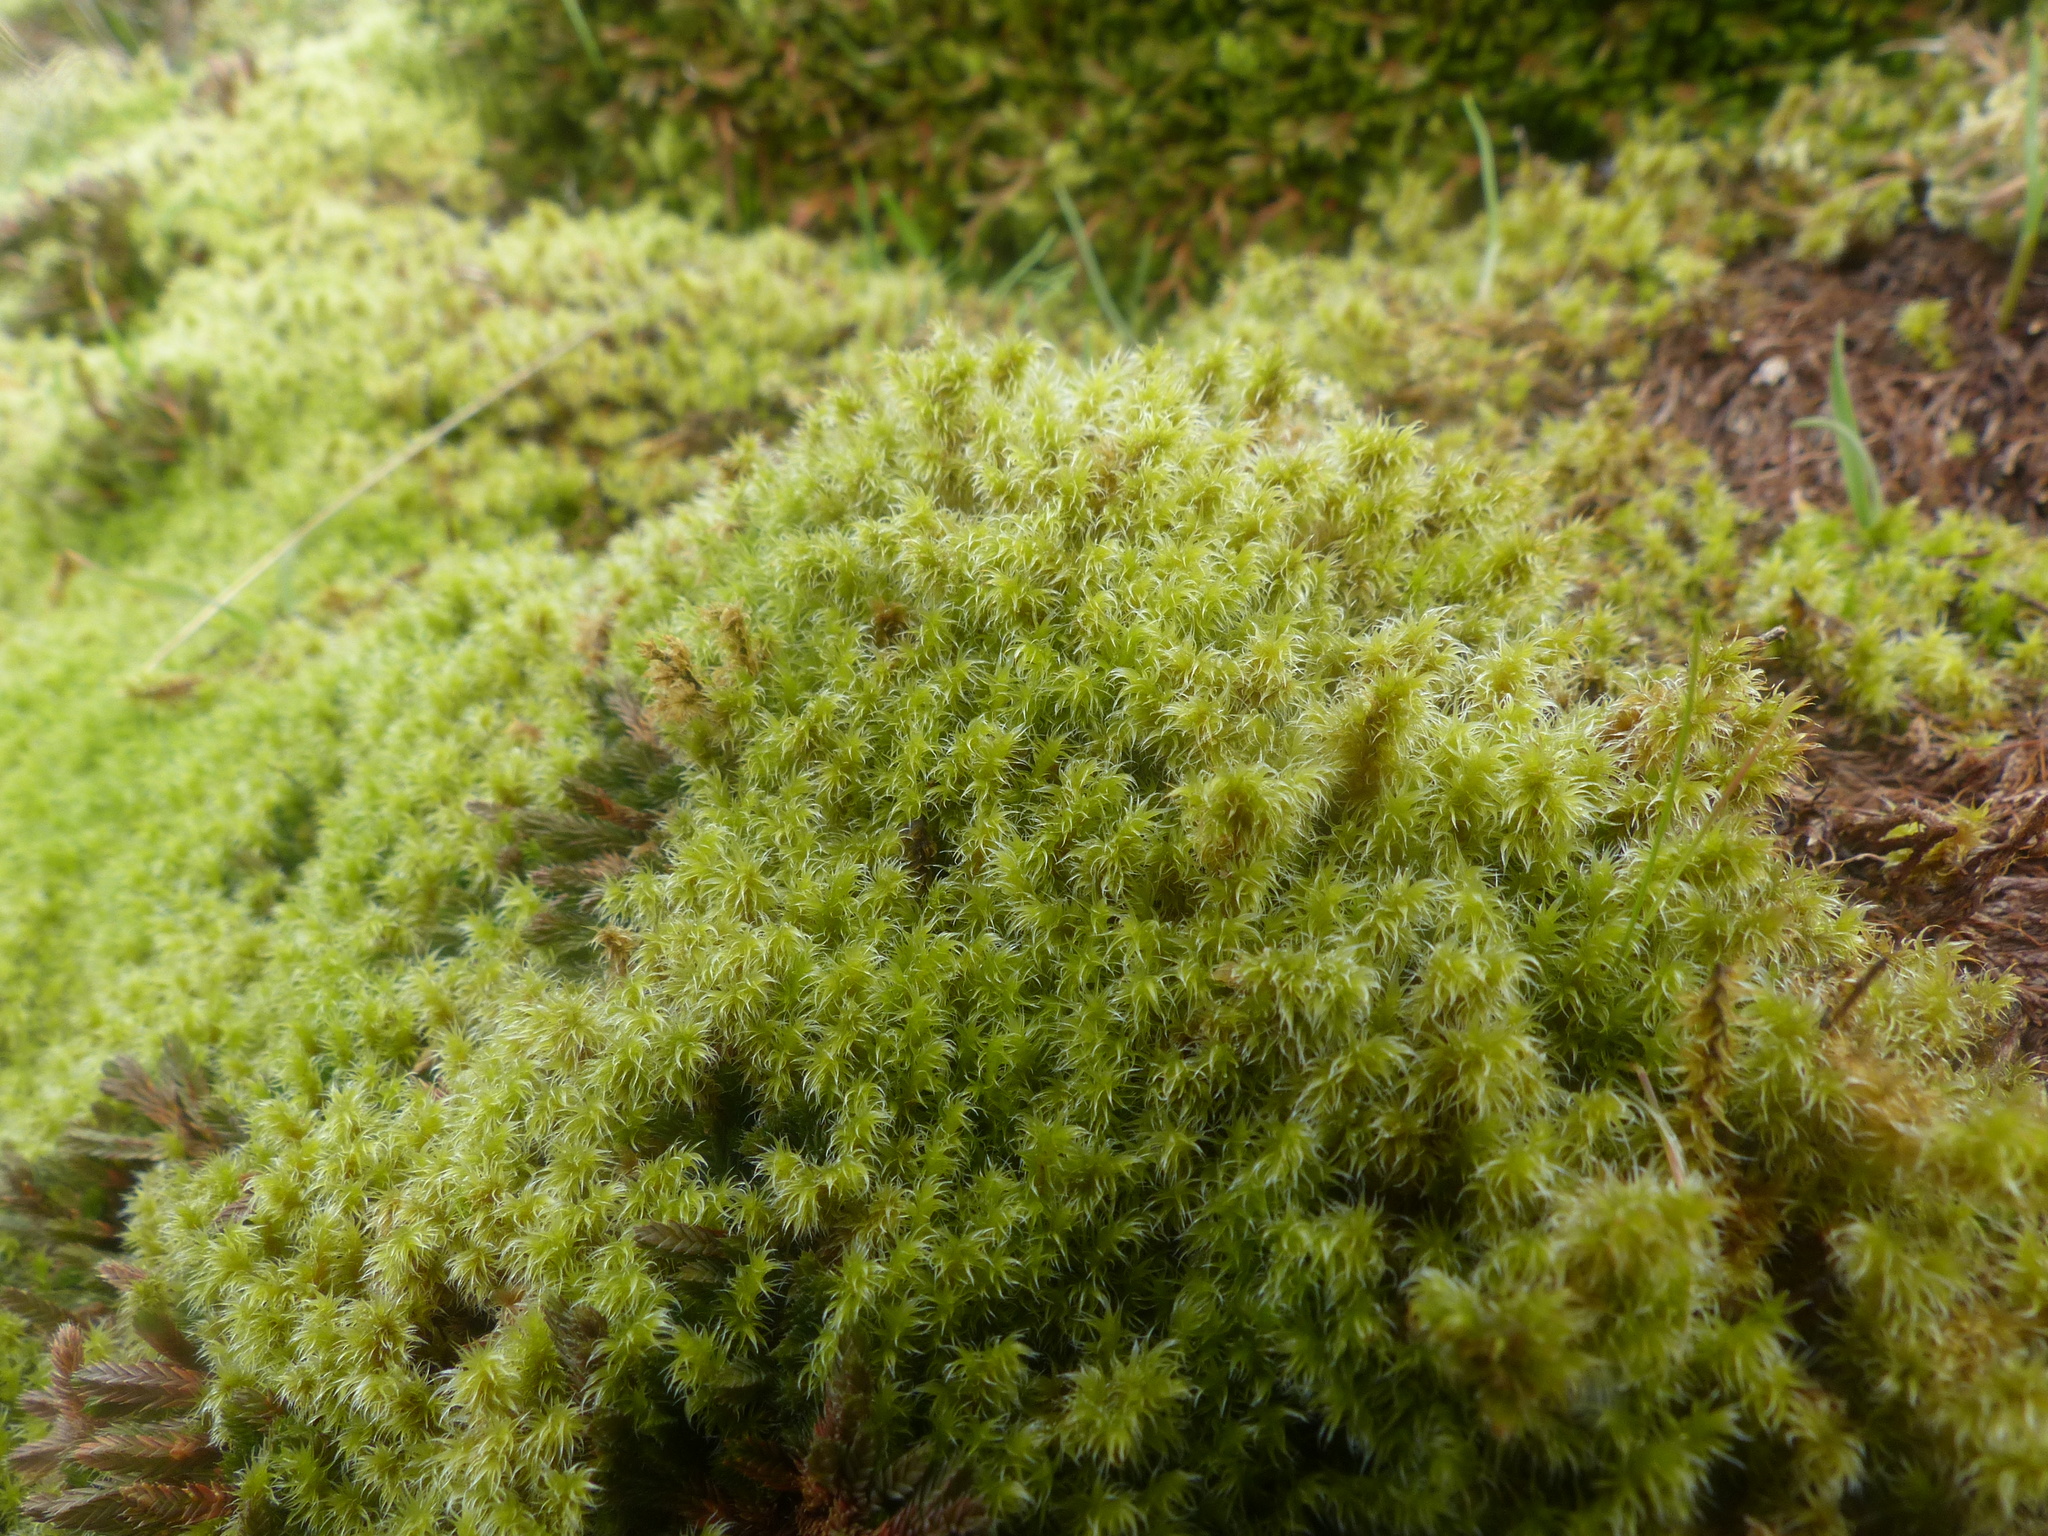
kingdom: Plantae
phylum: Bryophyta
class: Bryopsida
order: Grimmiales
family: Grimmiaceae
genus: Niphotrichum
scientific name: Niphotrichum elongatum
